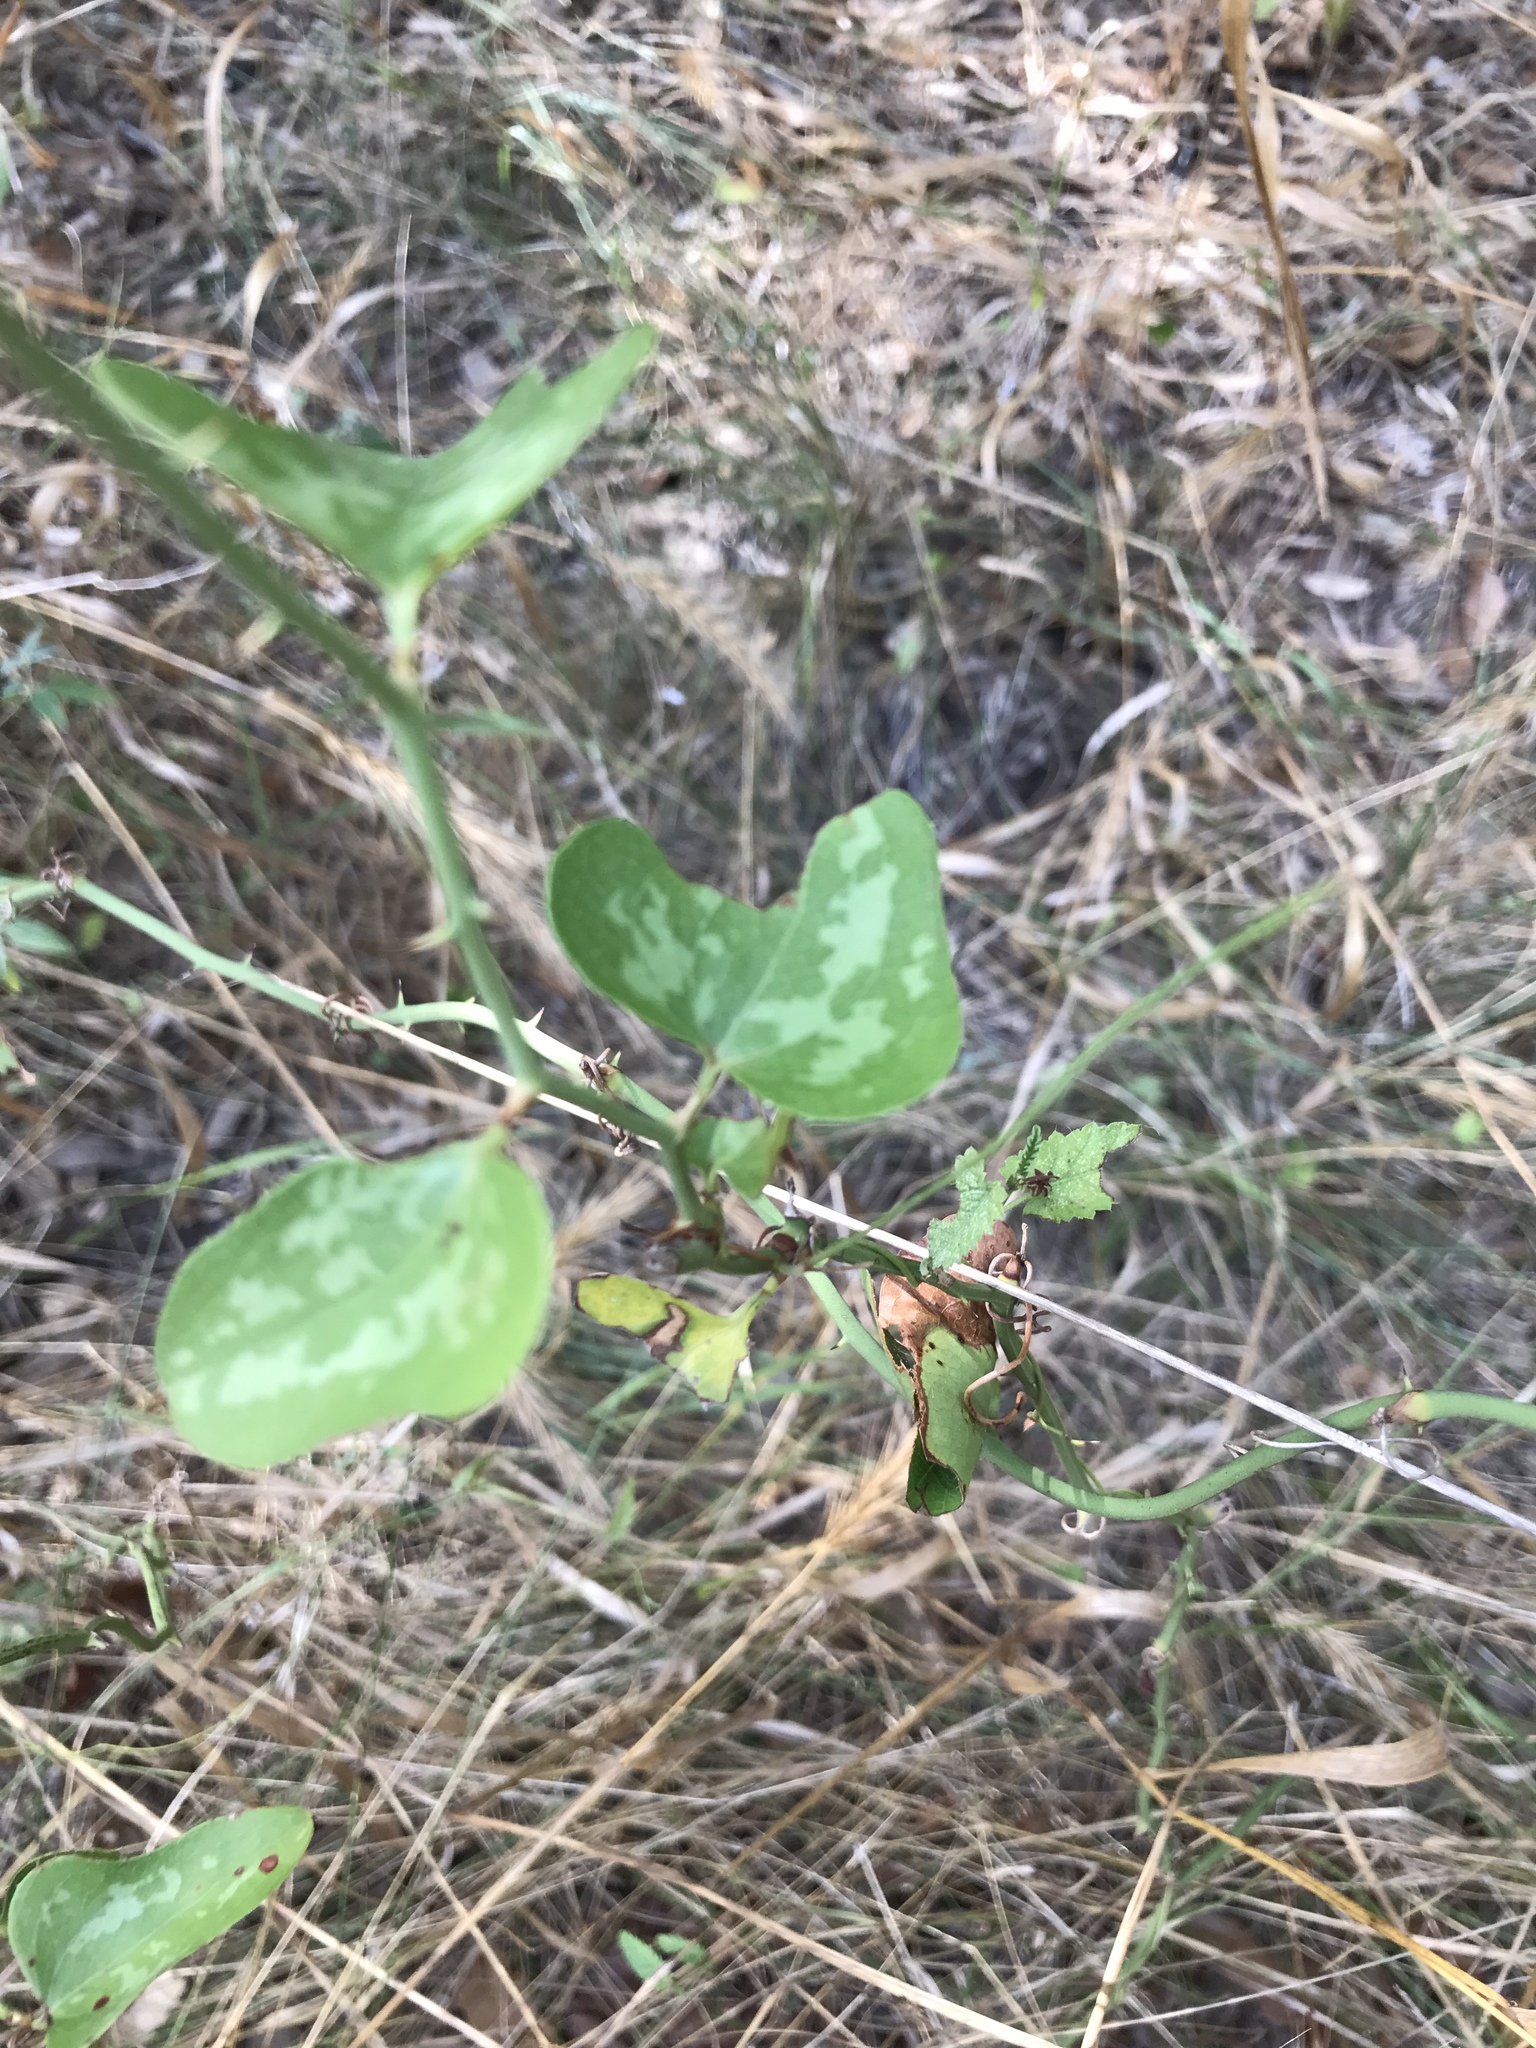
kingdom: Plantae
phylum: Tracheophyta
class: Liliopsida
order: Liliales
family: Smilacaceae
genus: Smilax
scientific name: Smilax bona-nox
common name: Catbrier
